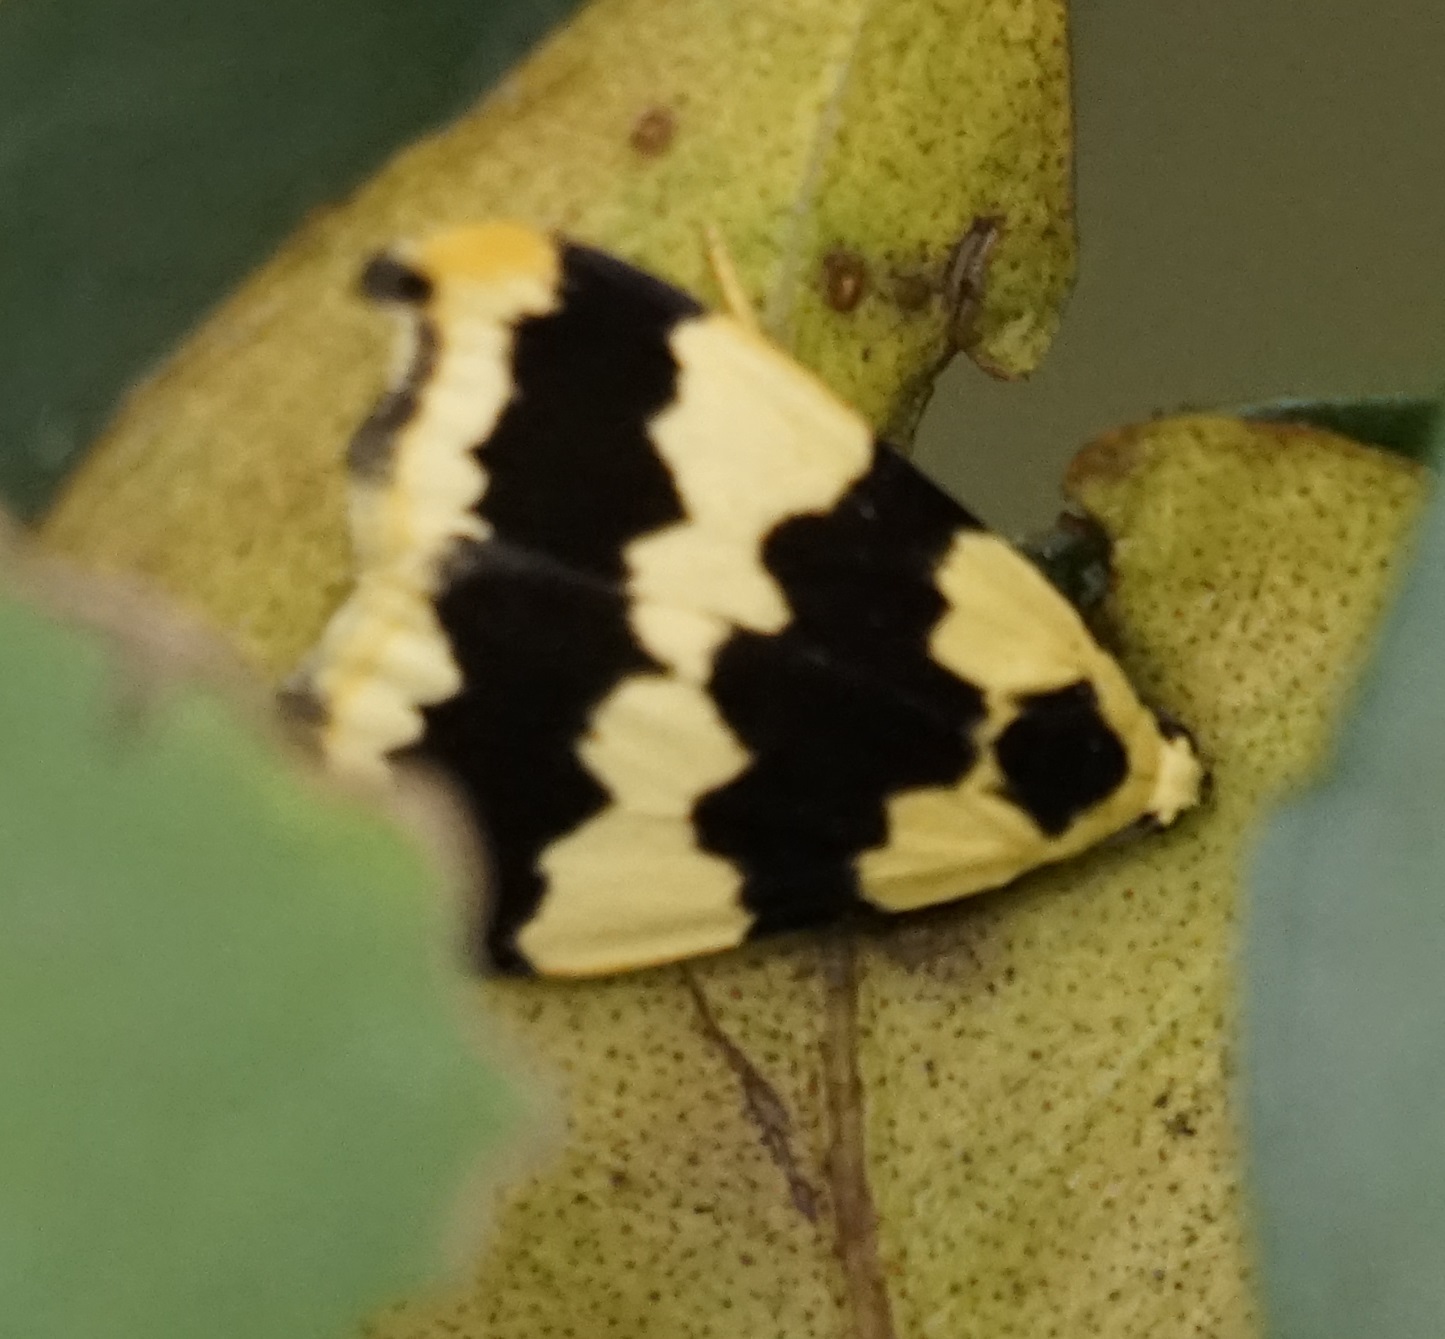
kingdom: Animalia
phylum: Arthropoda
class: Insecta
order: Lepidoptera
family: Erebidae
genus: Termessa
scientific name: Termessa discrepans
